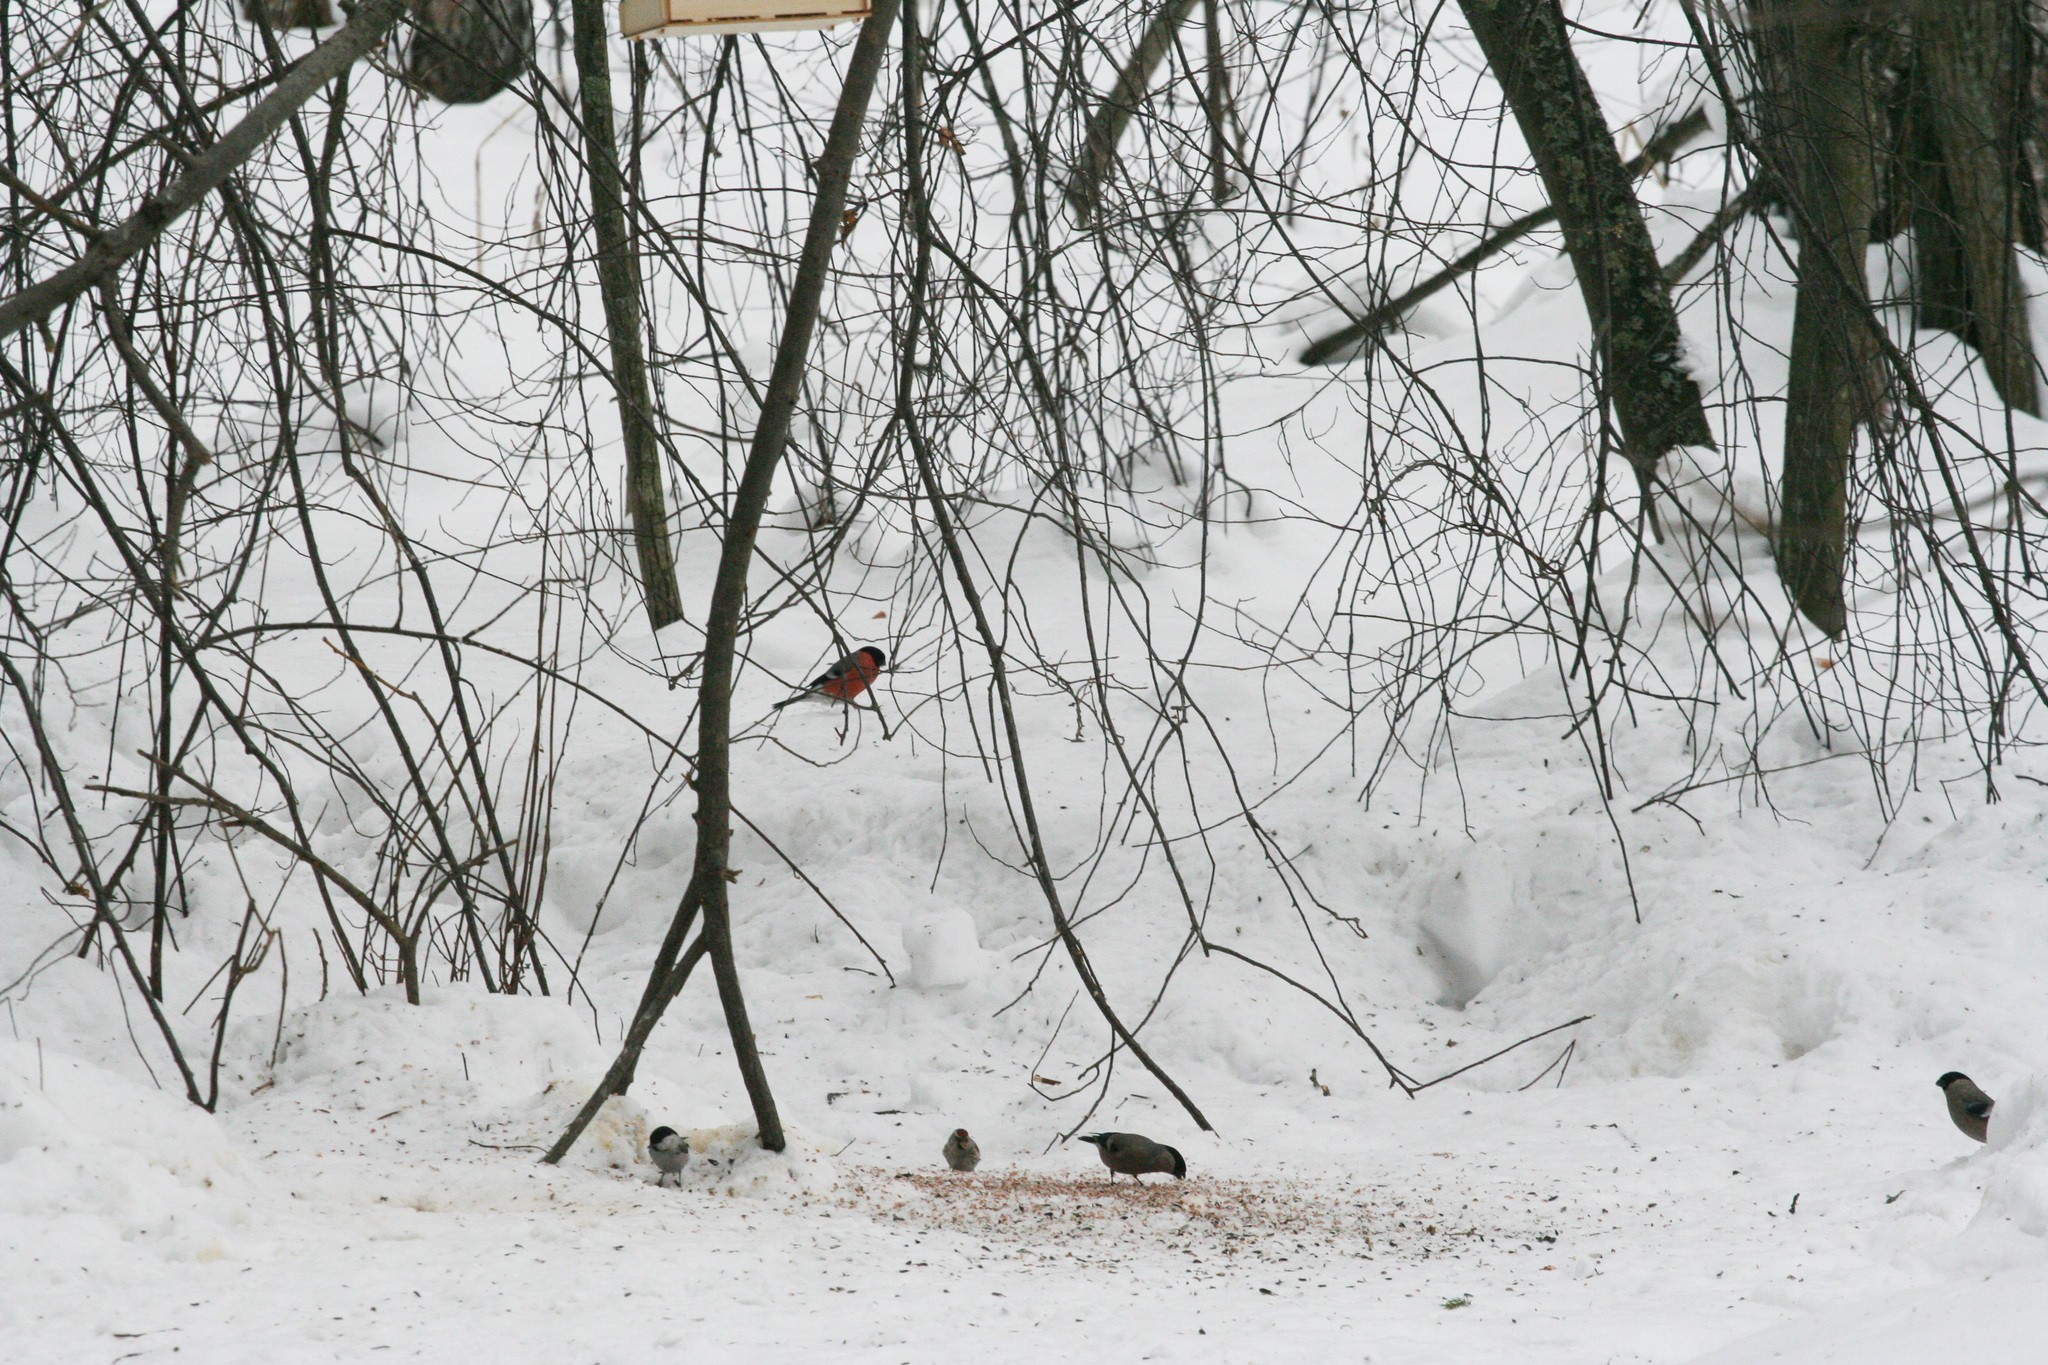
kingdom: Animalia
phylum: Chordata
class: Aves
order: Passeriformes
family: Fringillidae
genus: Pyrrhula
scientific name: Pyrrhula pyrrhula
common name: Eurasian bullfinch
